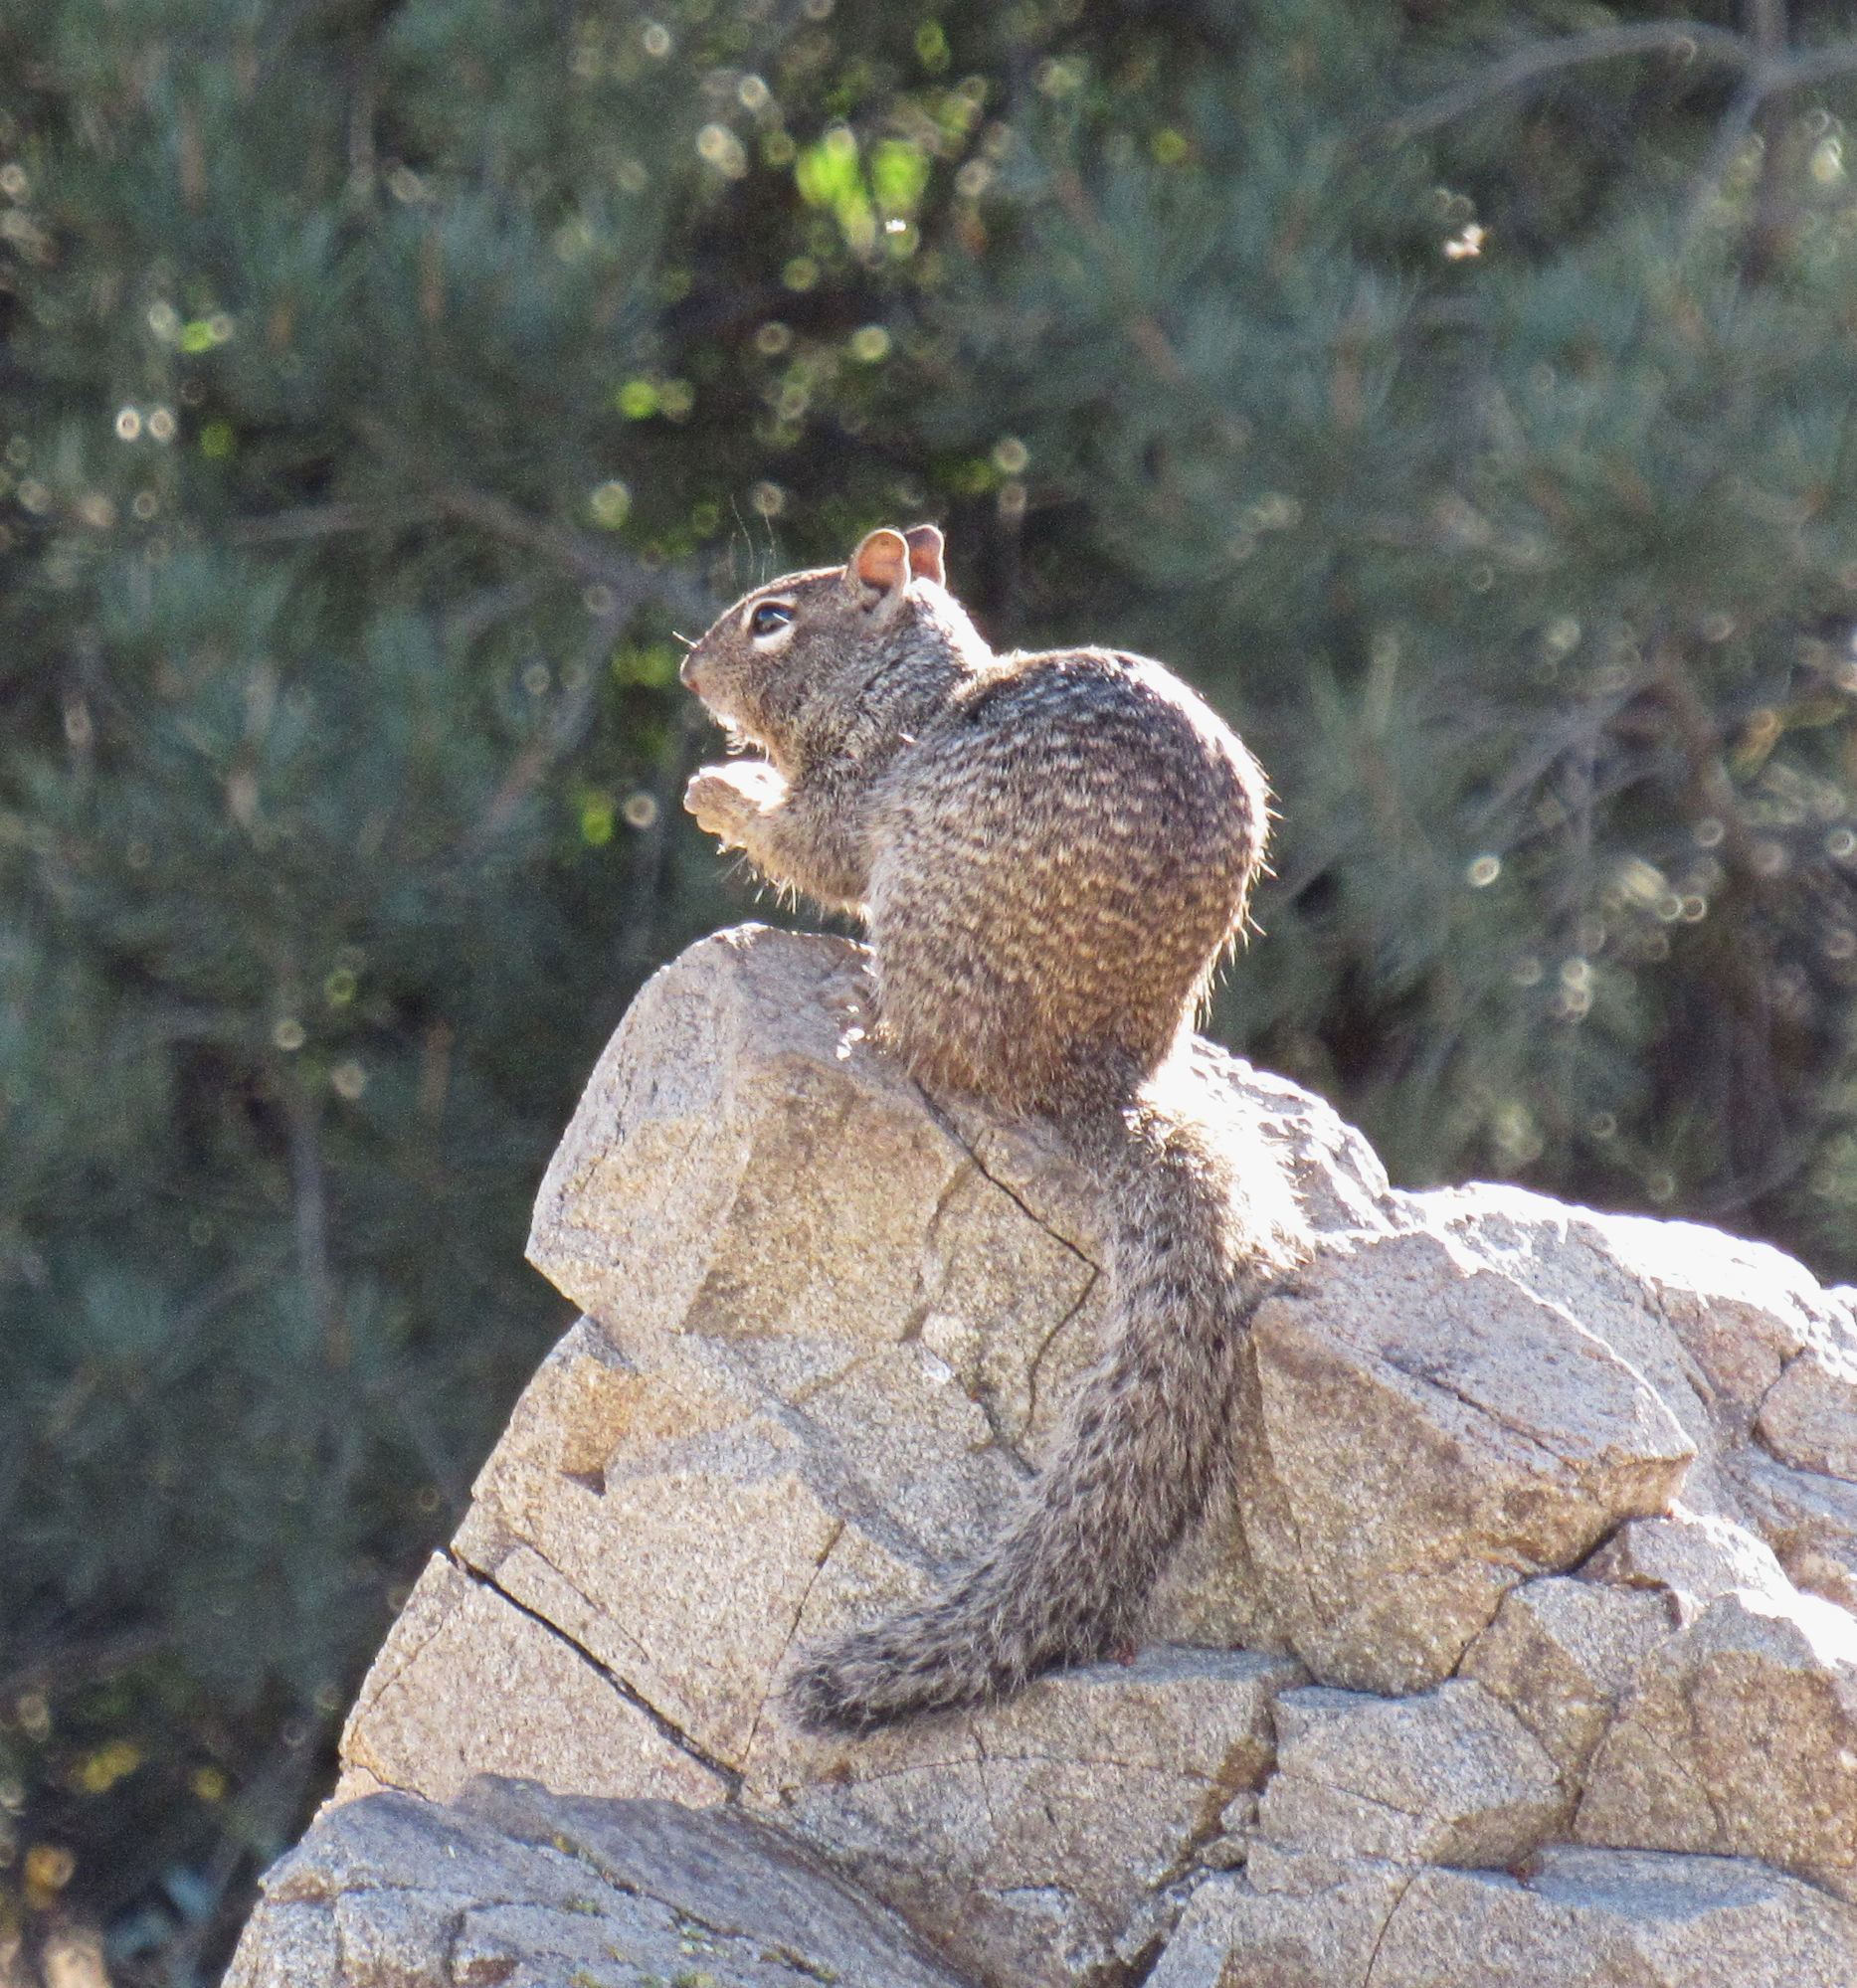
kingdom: Animalia
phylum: Chordata
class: Mammalia
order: Rodentia
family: Sciuridae
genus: Otospermophilus
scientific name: Otospermophilus variegatus
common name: Rock squirrel
